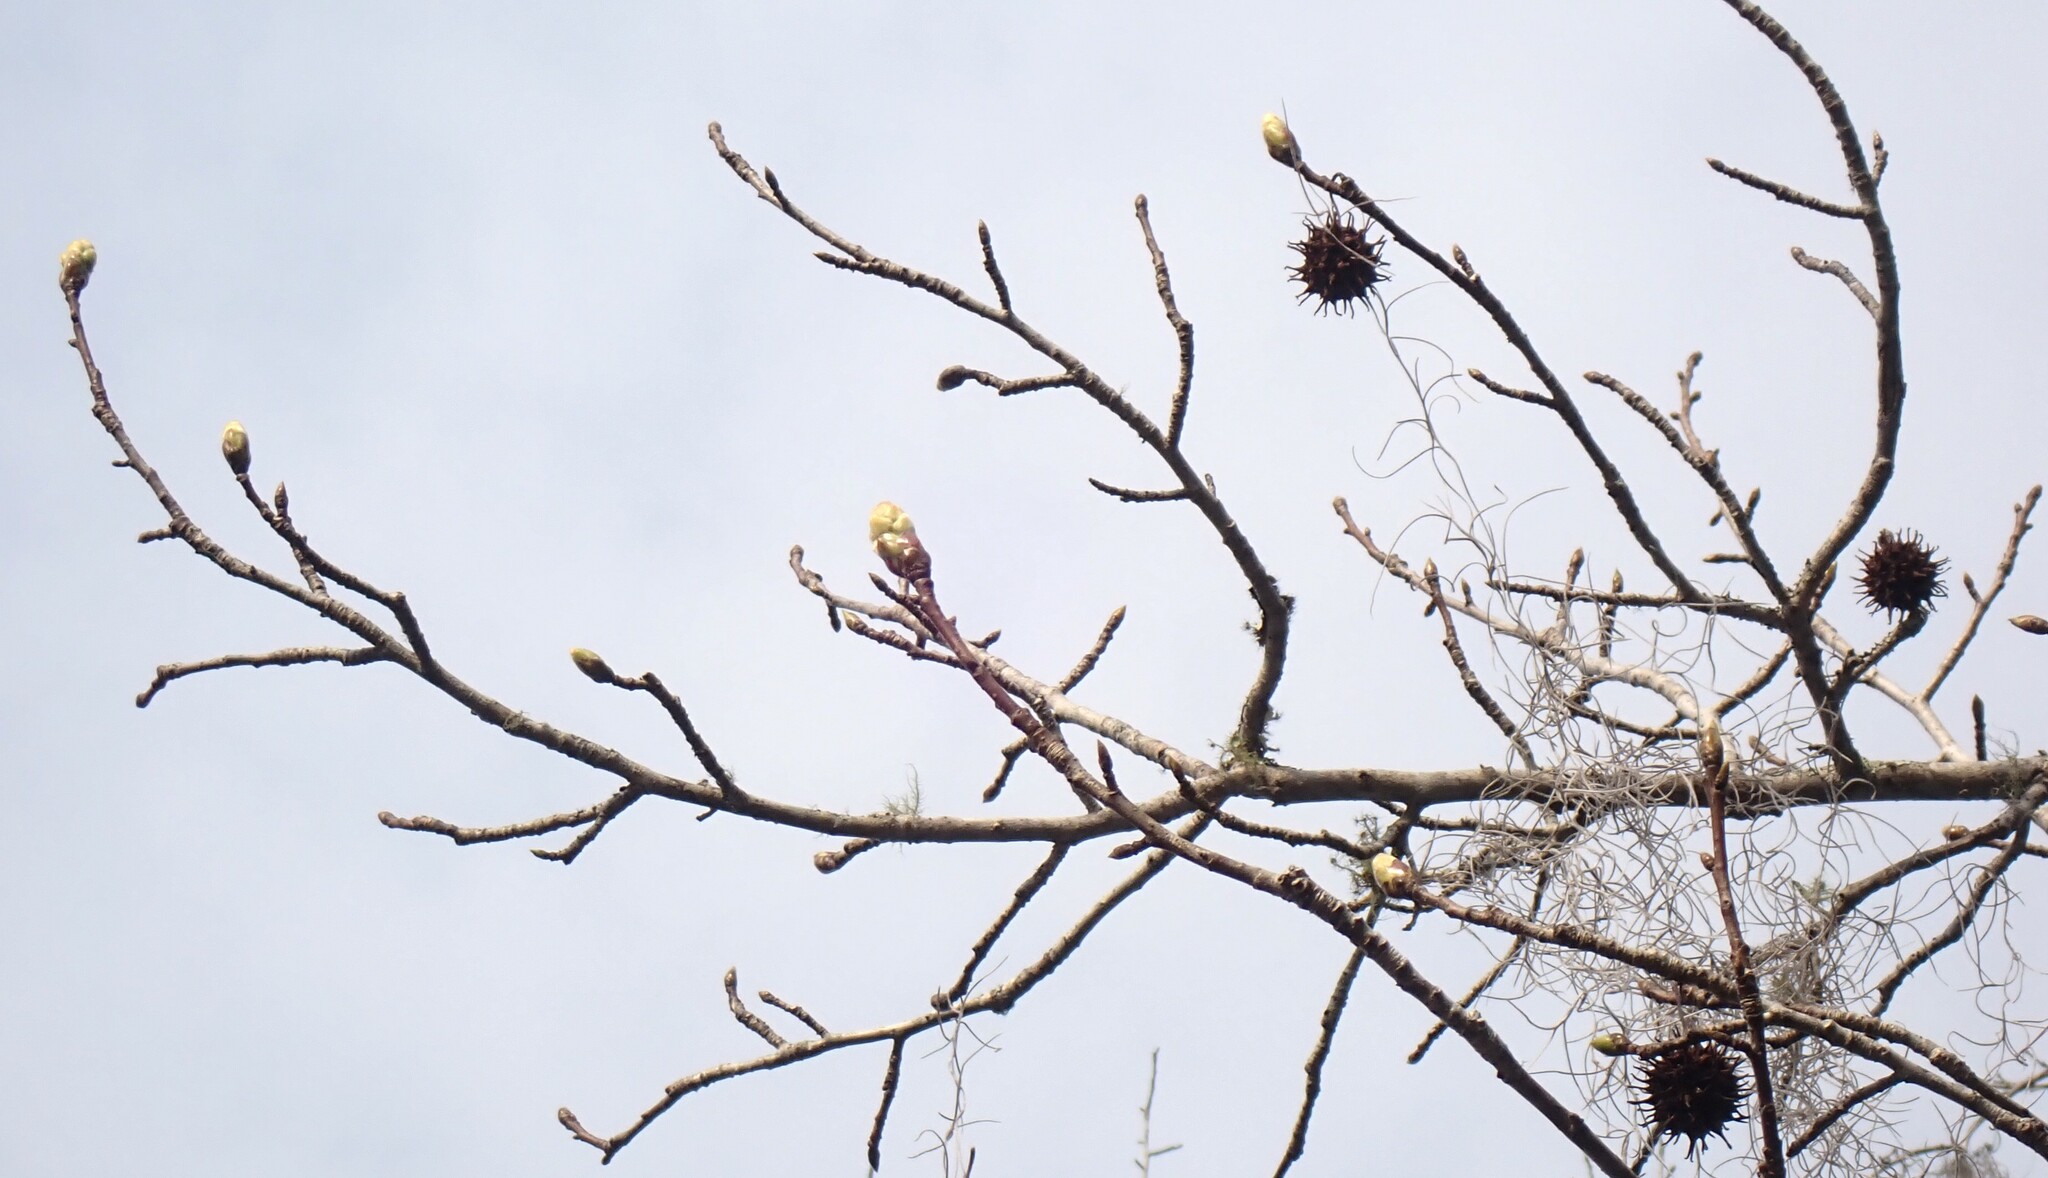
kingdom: Plantae
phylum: Tracheophyta
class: Magnoliopsida
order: Saxifragales
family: Altingiaceae
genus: Liquidambar
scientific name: Liquidambar styraciflua
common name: Sweet gum
